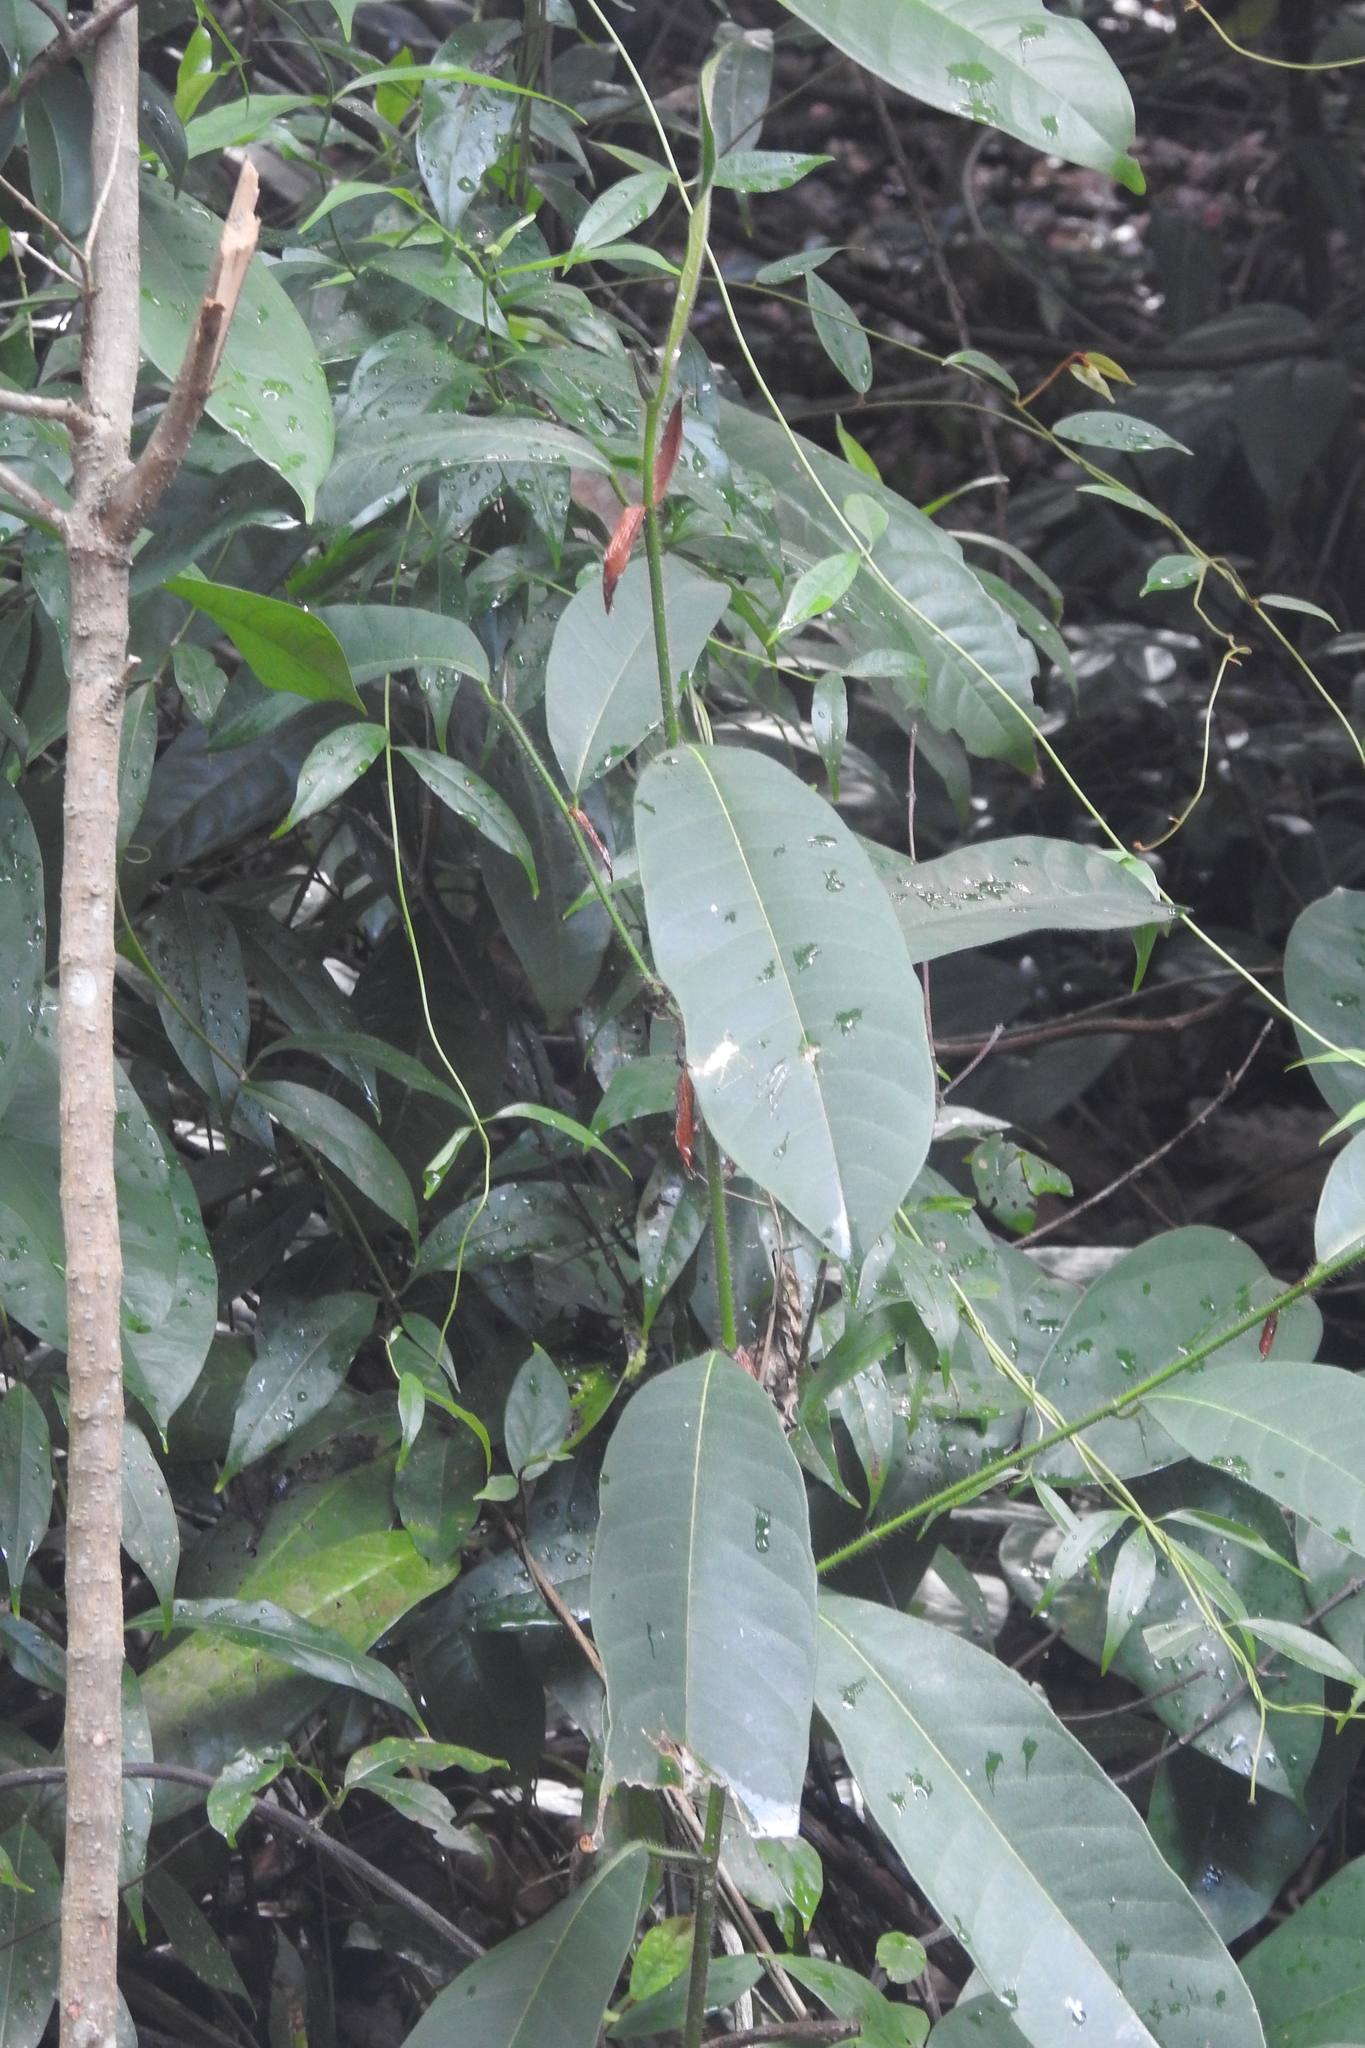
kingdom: Plantae
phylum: Tracheophyta
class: Magnoliopsida
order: Rosales
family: Moraceae
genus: Artocarpus
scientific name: Artocarpus integer
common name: Chempedak
